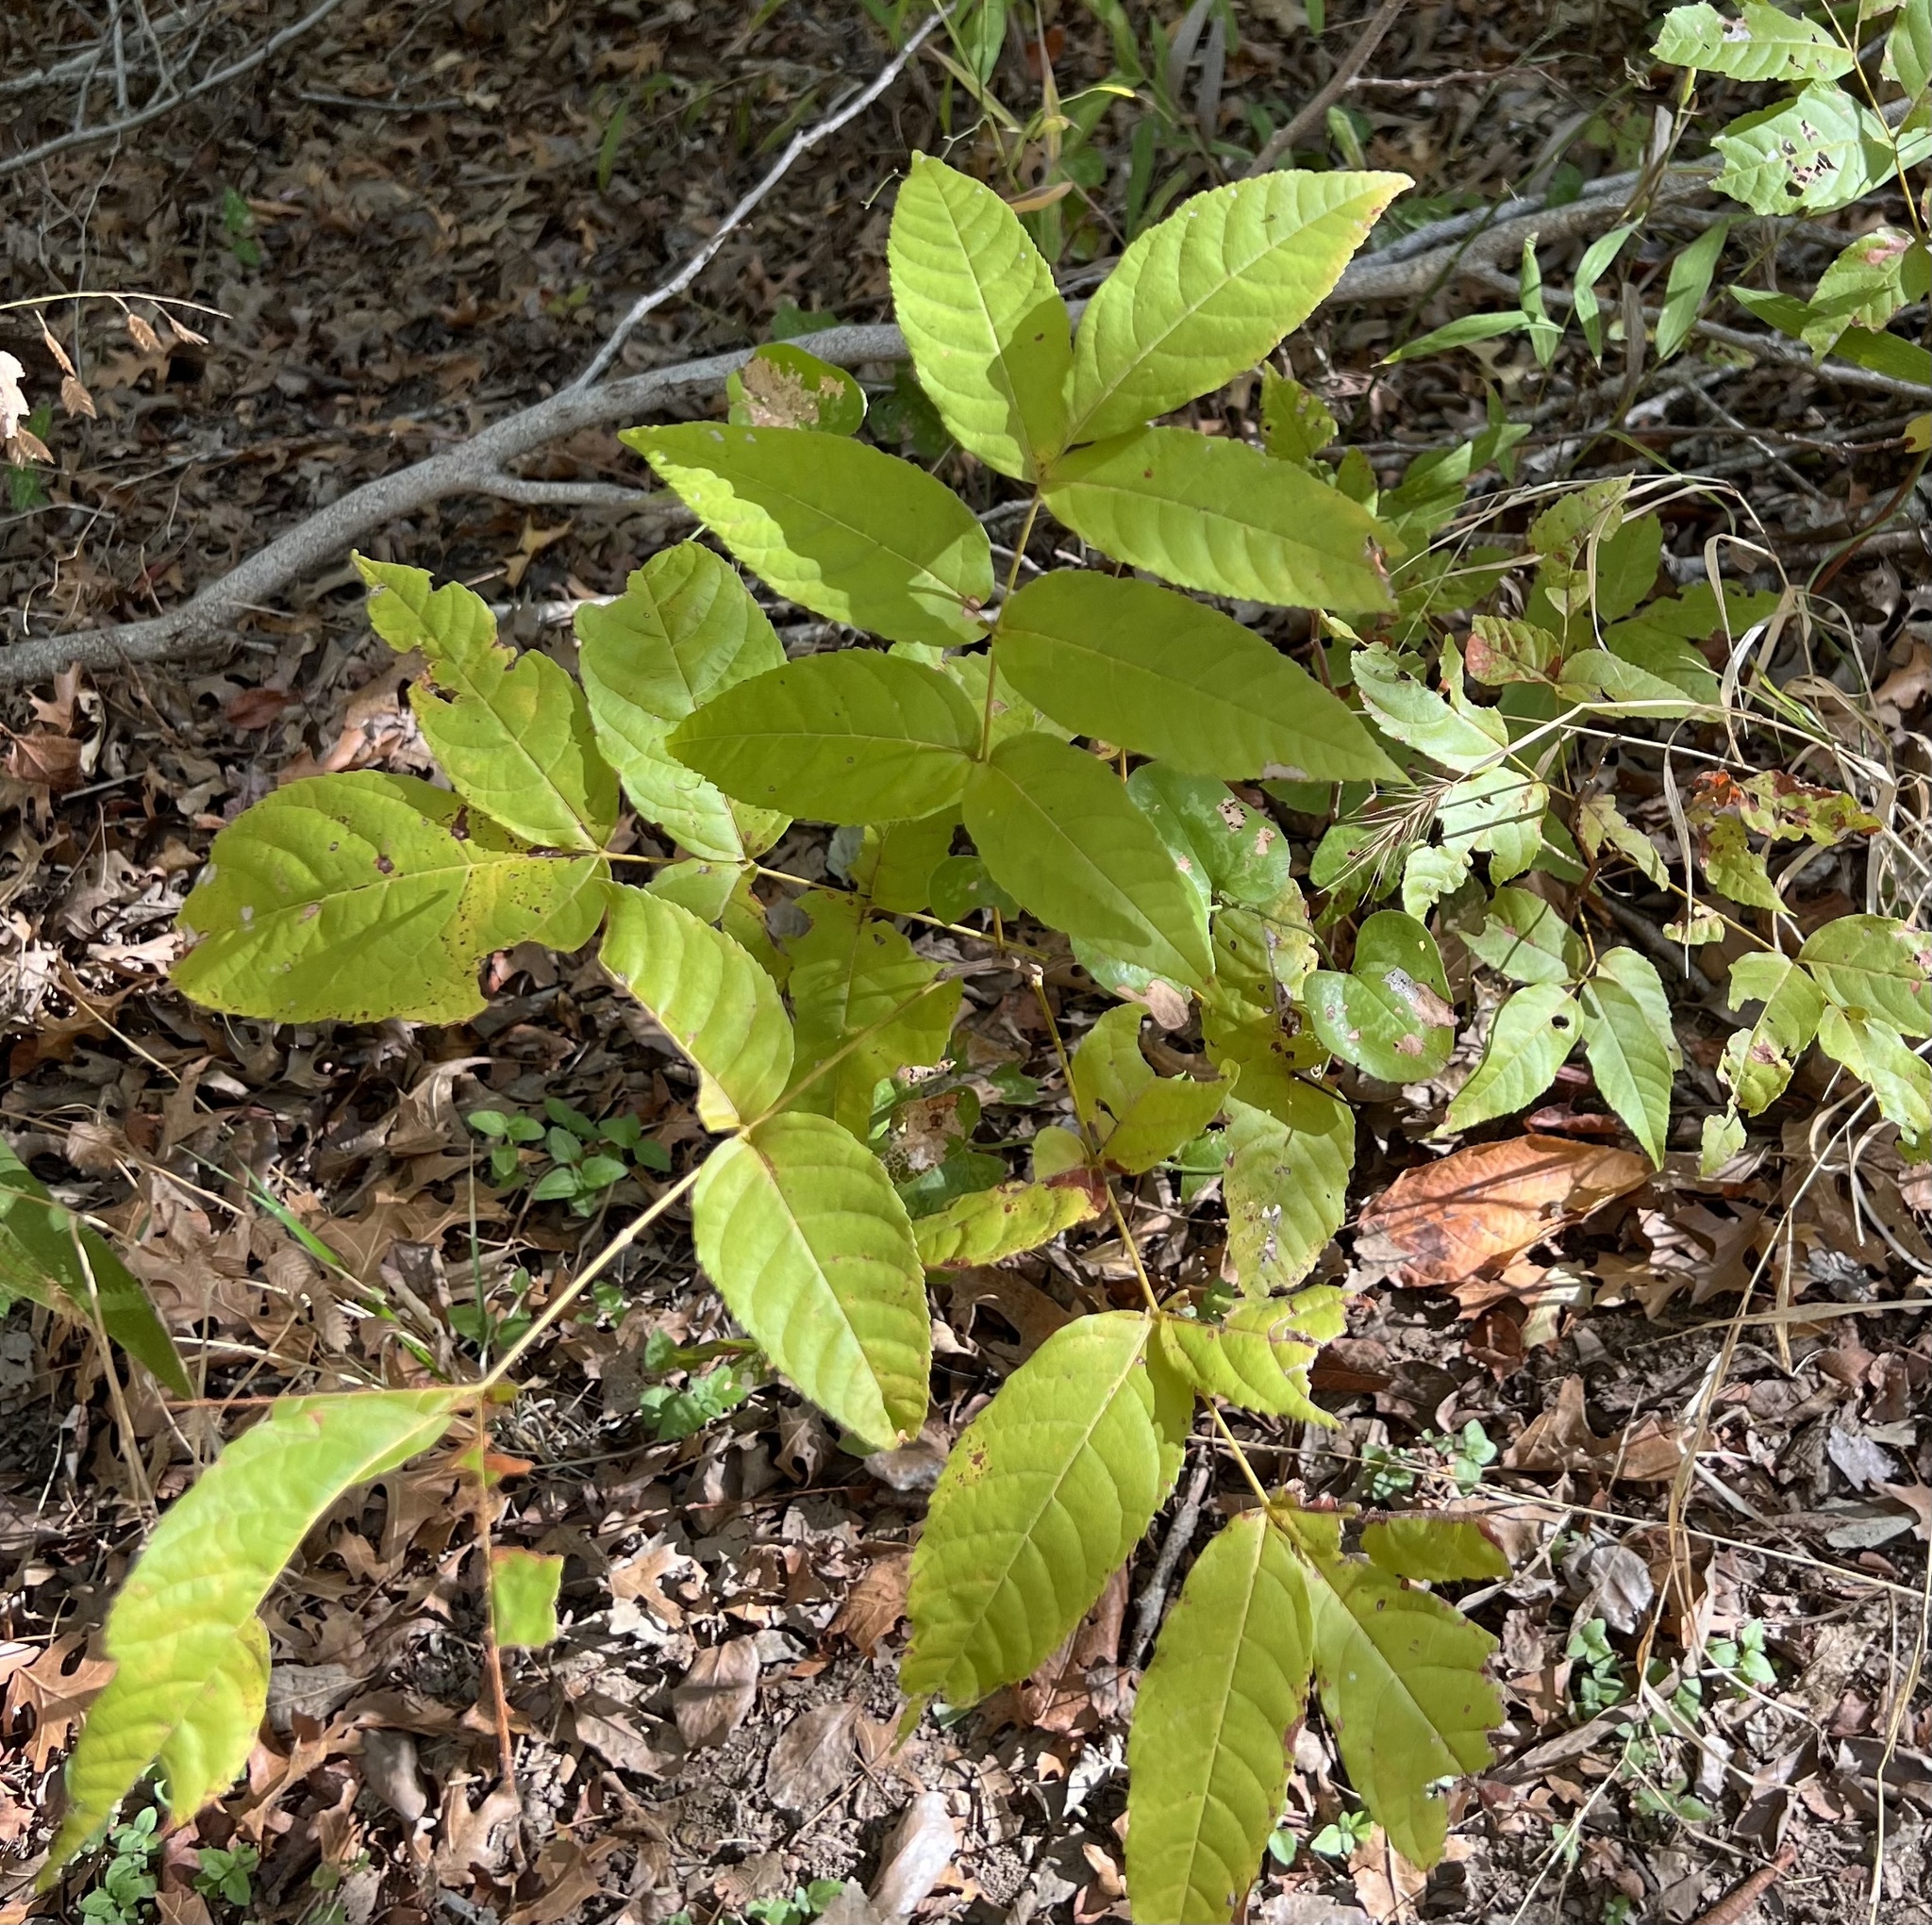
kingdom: Plantae
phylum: Tracheophyta
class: Magnoliopsida
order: Sapindales
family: Sapindaceae
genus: Ungnadia
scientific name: Ungnadia speciosa
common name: Texas-buckeye
